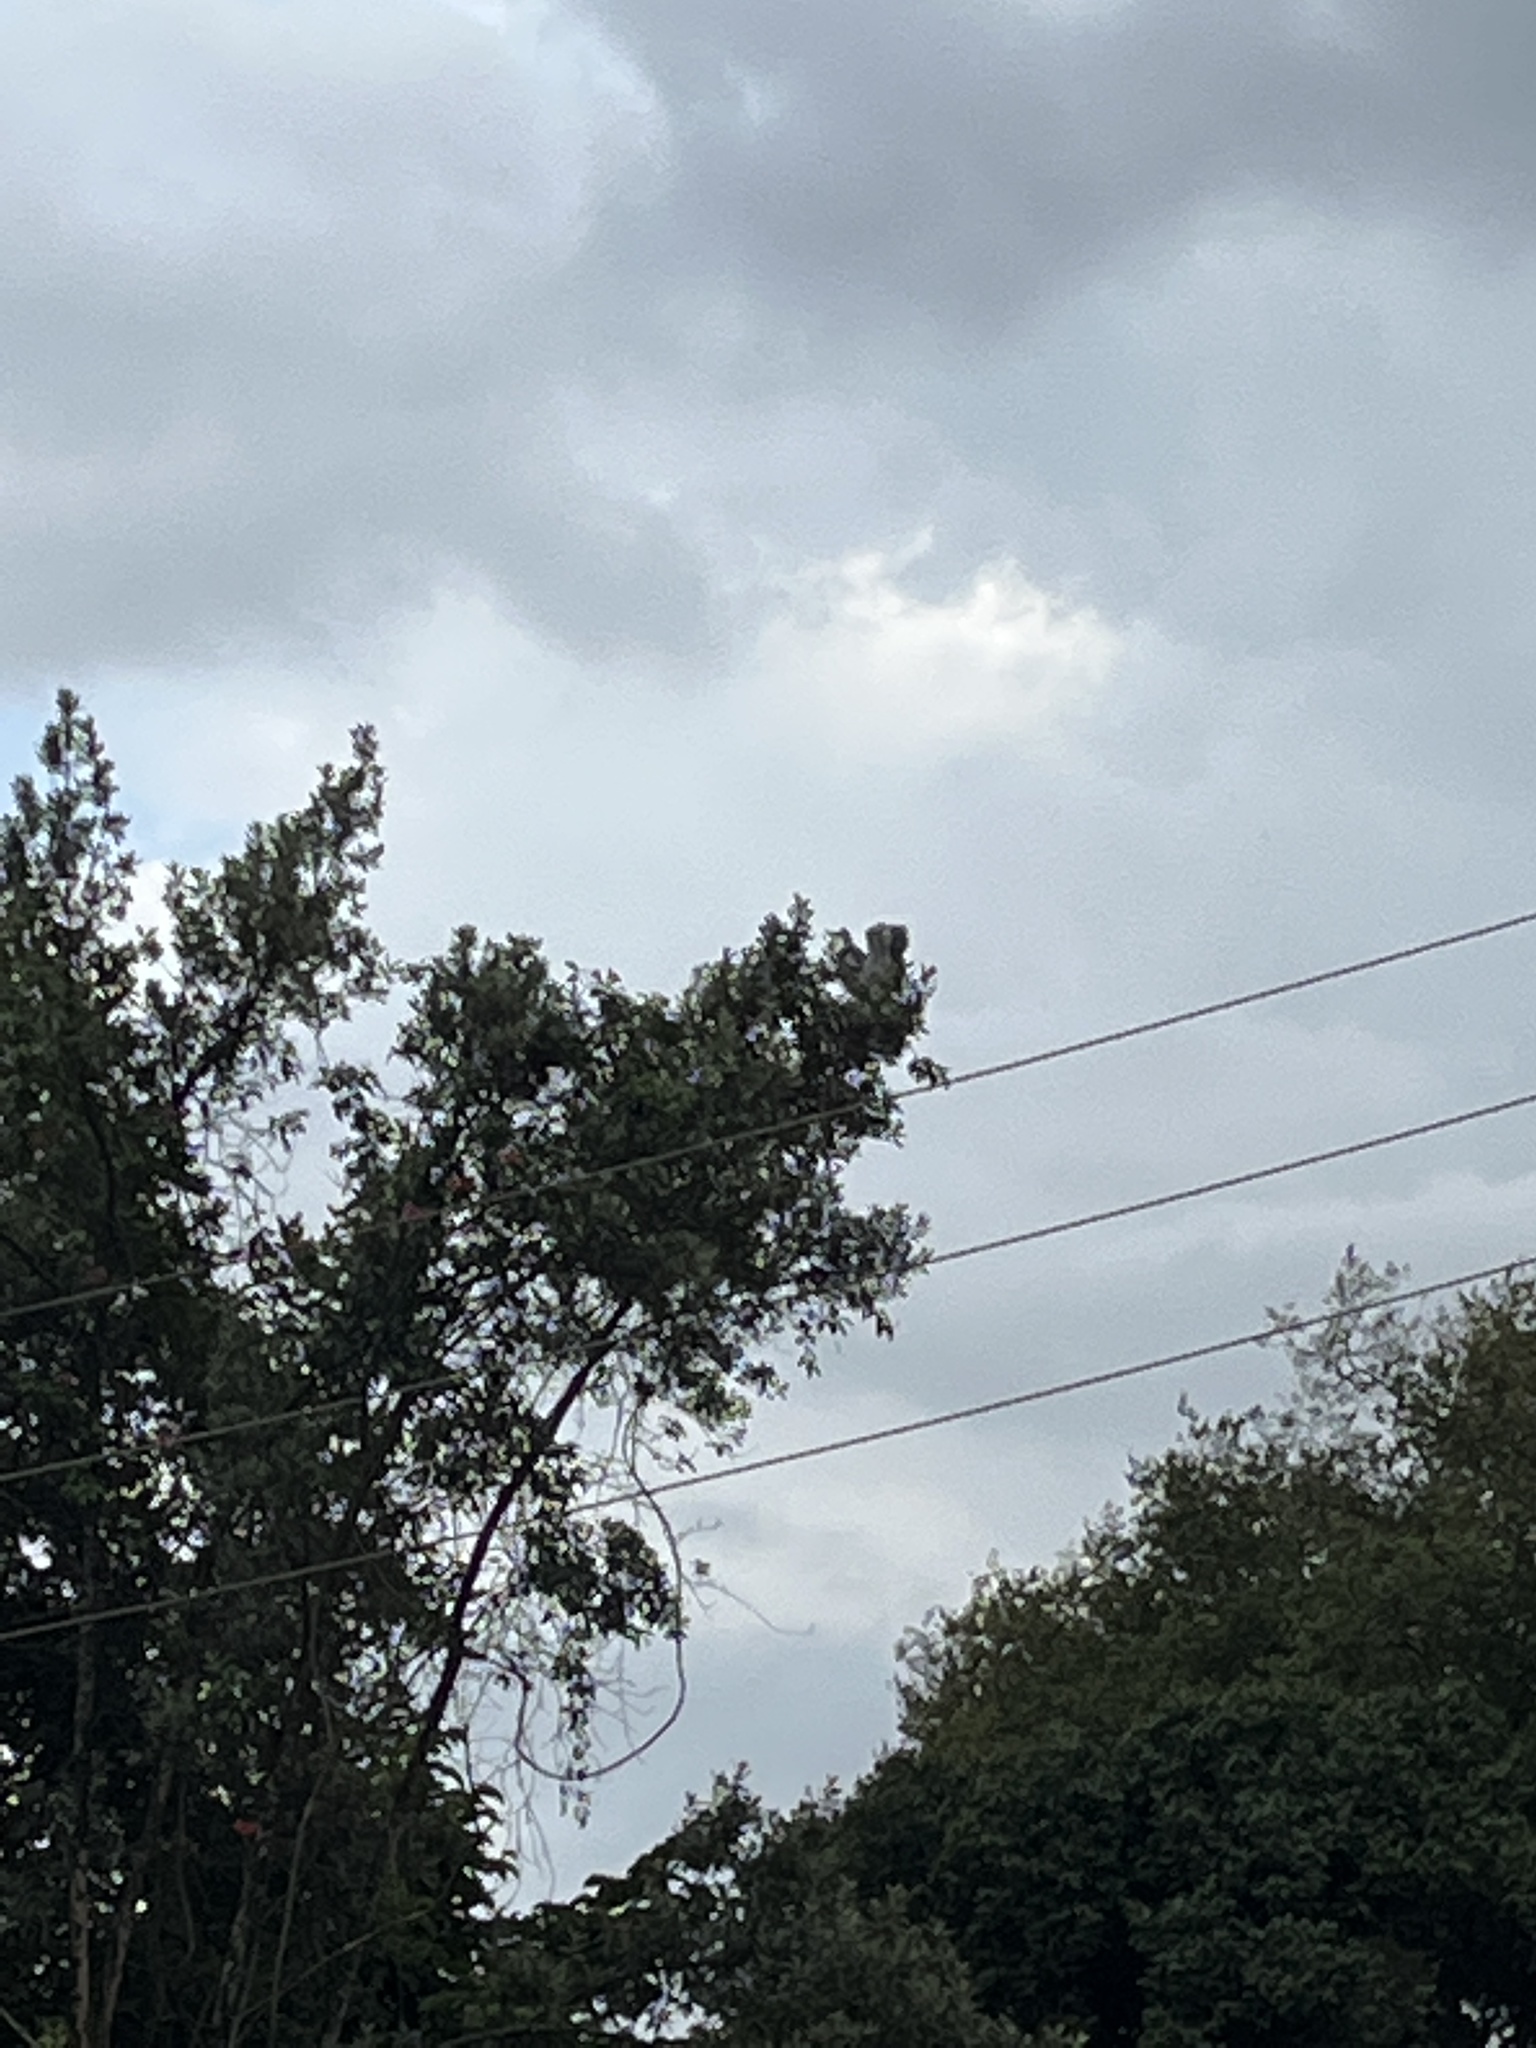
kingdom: Animalia
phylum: Chordata
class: Aves
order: Ciconiiformes
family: Ciconiidae
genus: Leptoptilos
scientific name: Leptoptilos crumenifer
